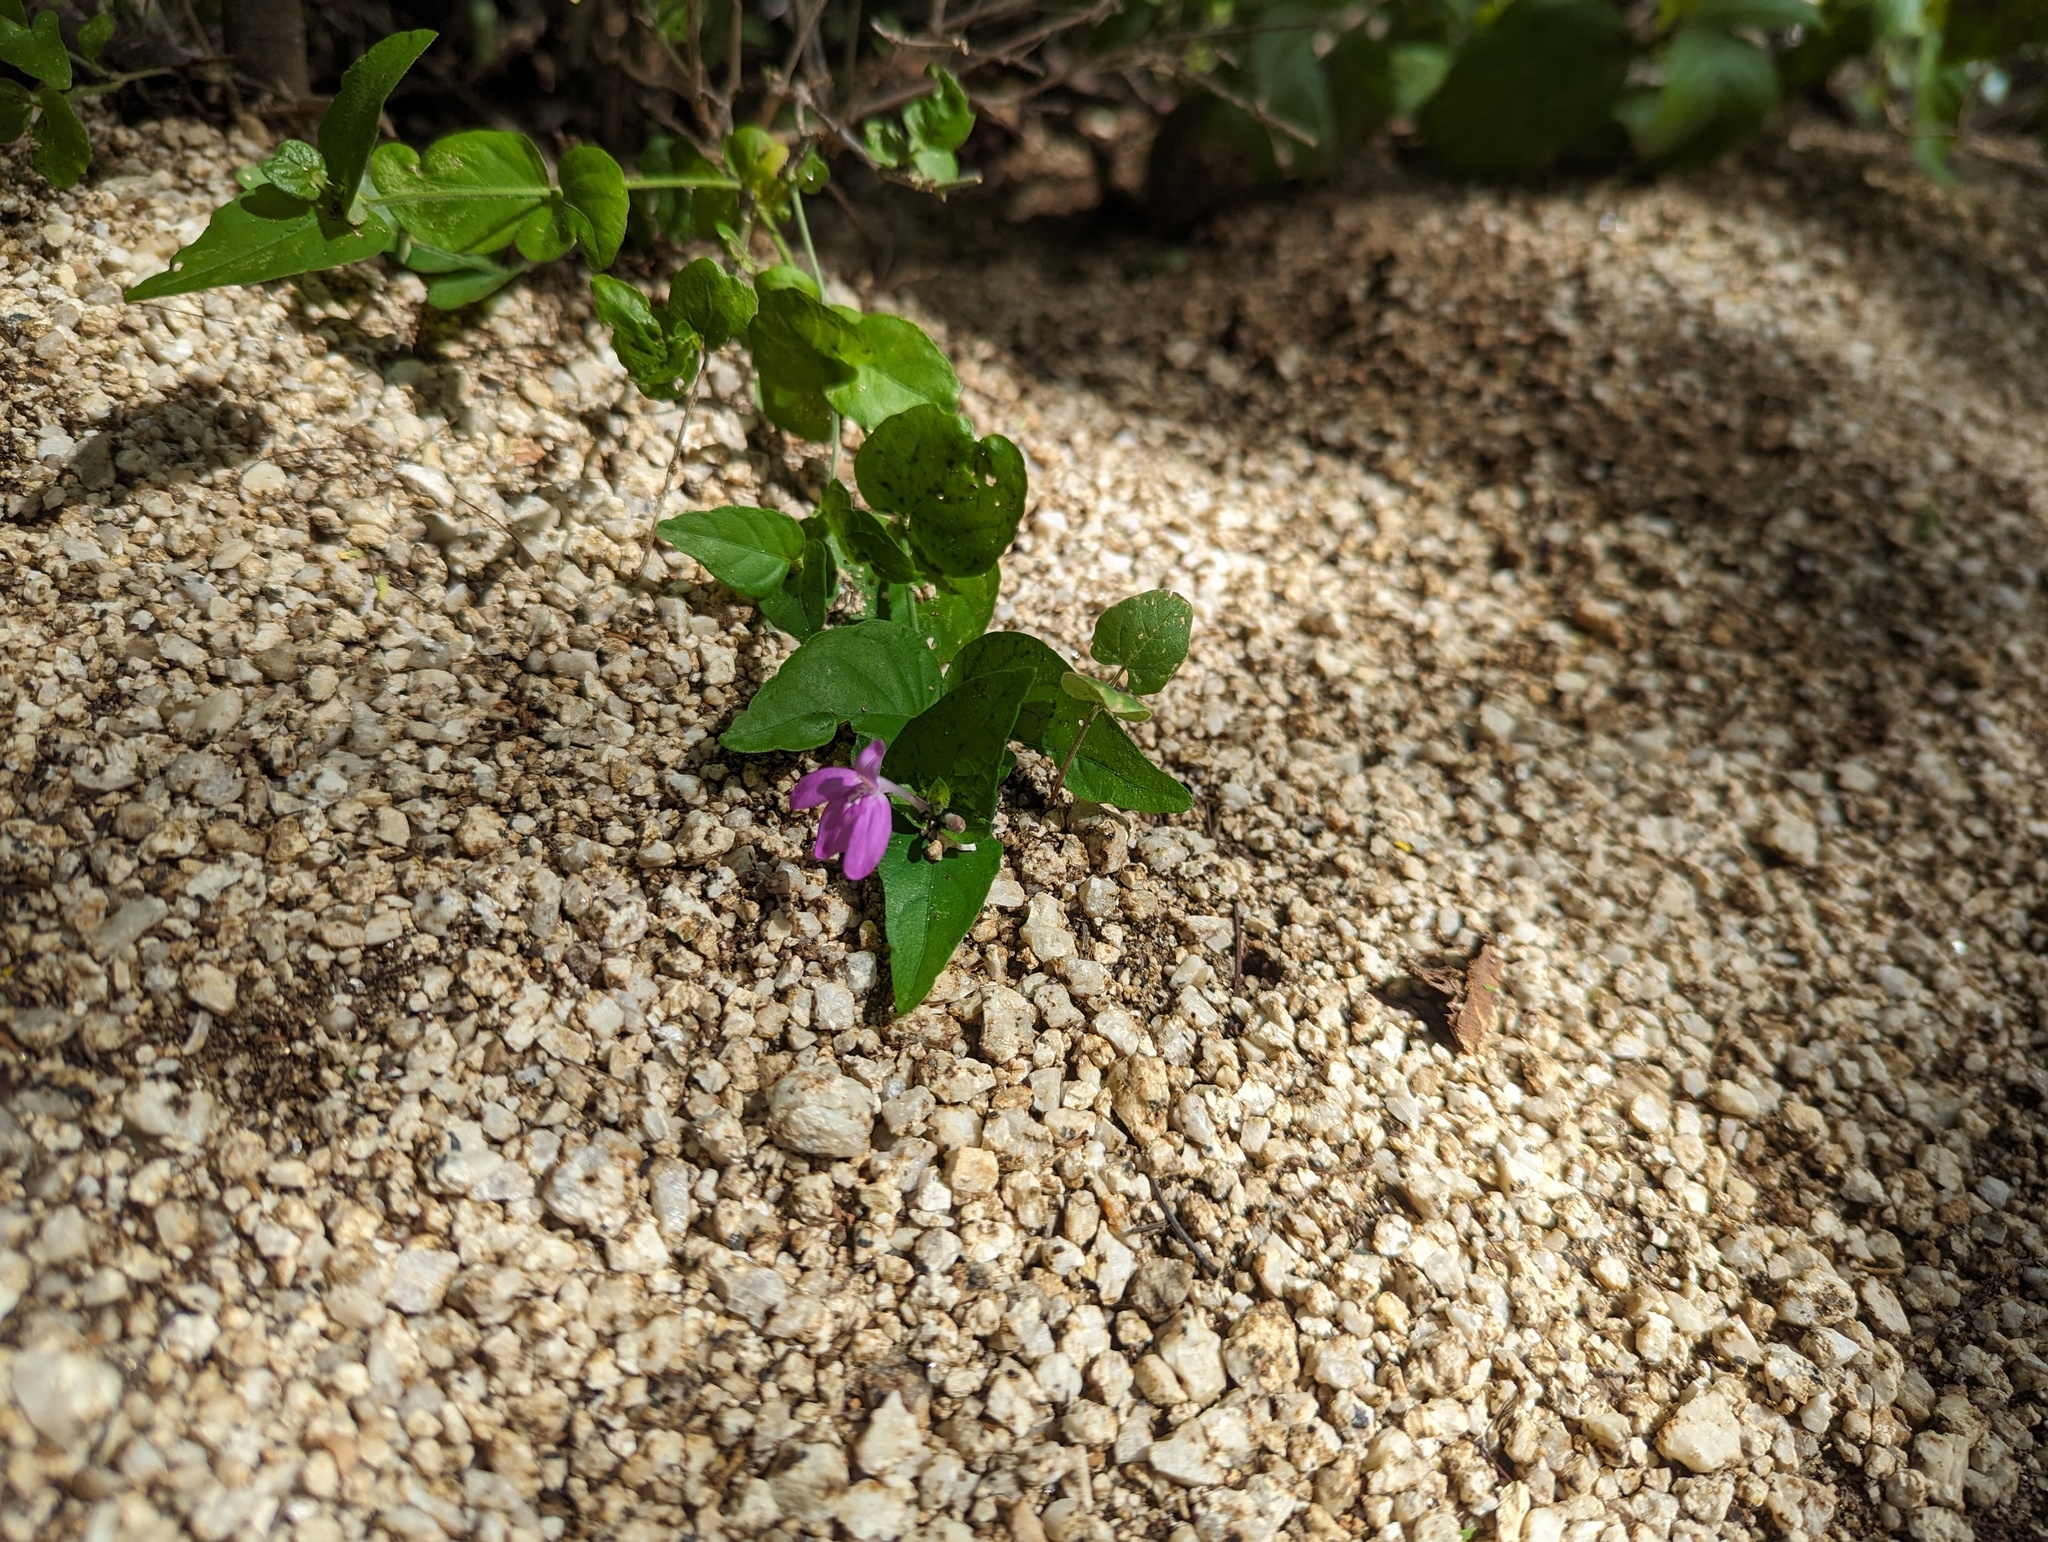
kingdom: Plantae
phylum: Tracheophyta
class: Magnoliopsida
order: Lamiales
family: Acanthaceae
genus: Dianthera
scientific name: Dianthera incerta
